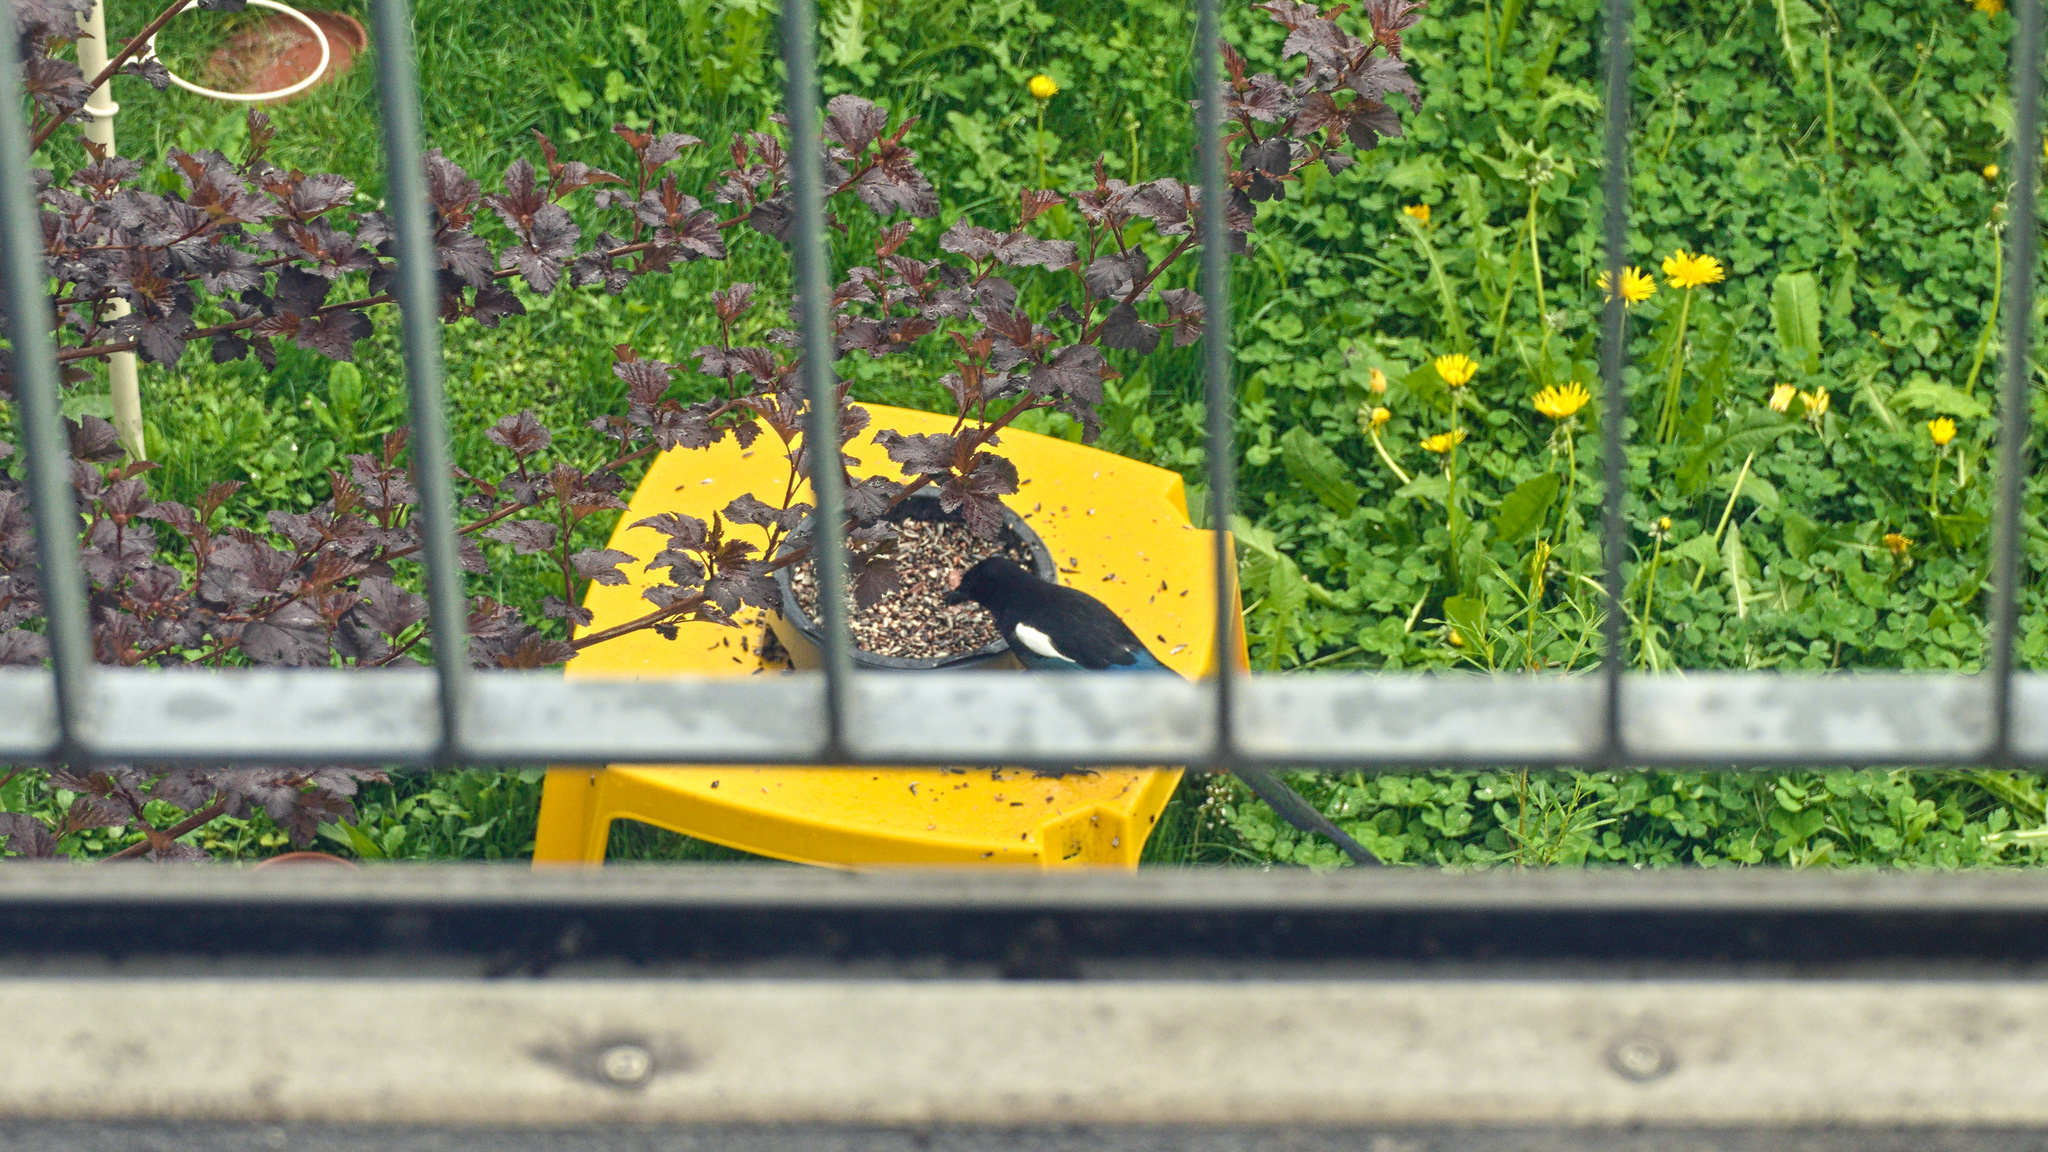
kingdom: Animalia
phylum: Chordata
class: Aves
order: Passeriformes
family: Corvidae
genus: Pica
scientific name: Pica pica
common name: Eurasian magpie
